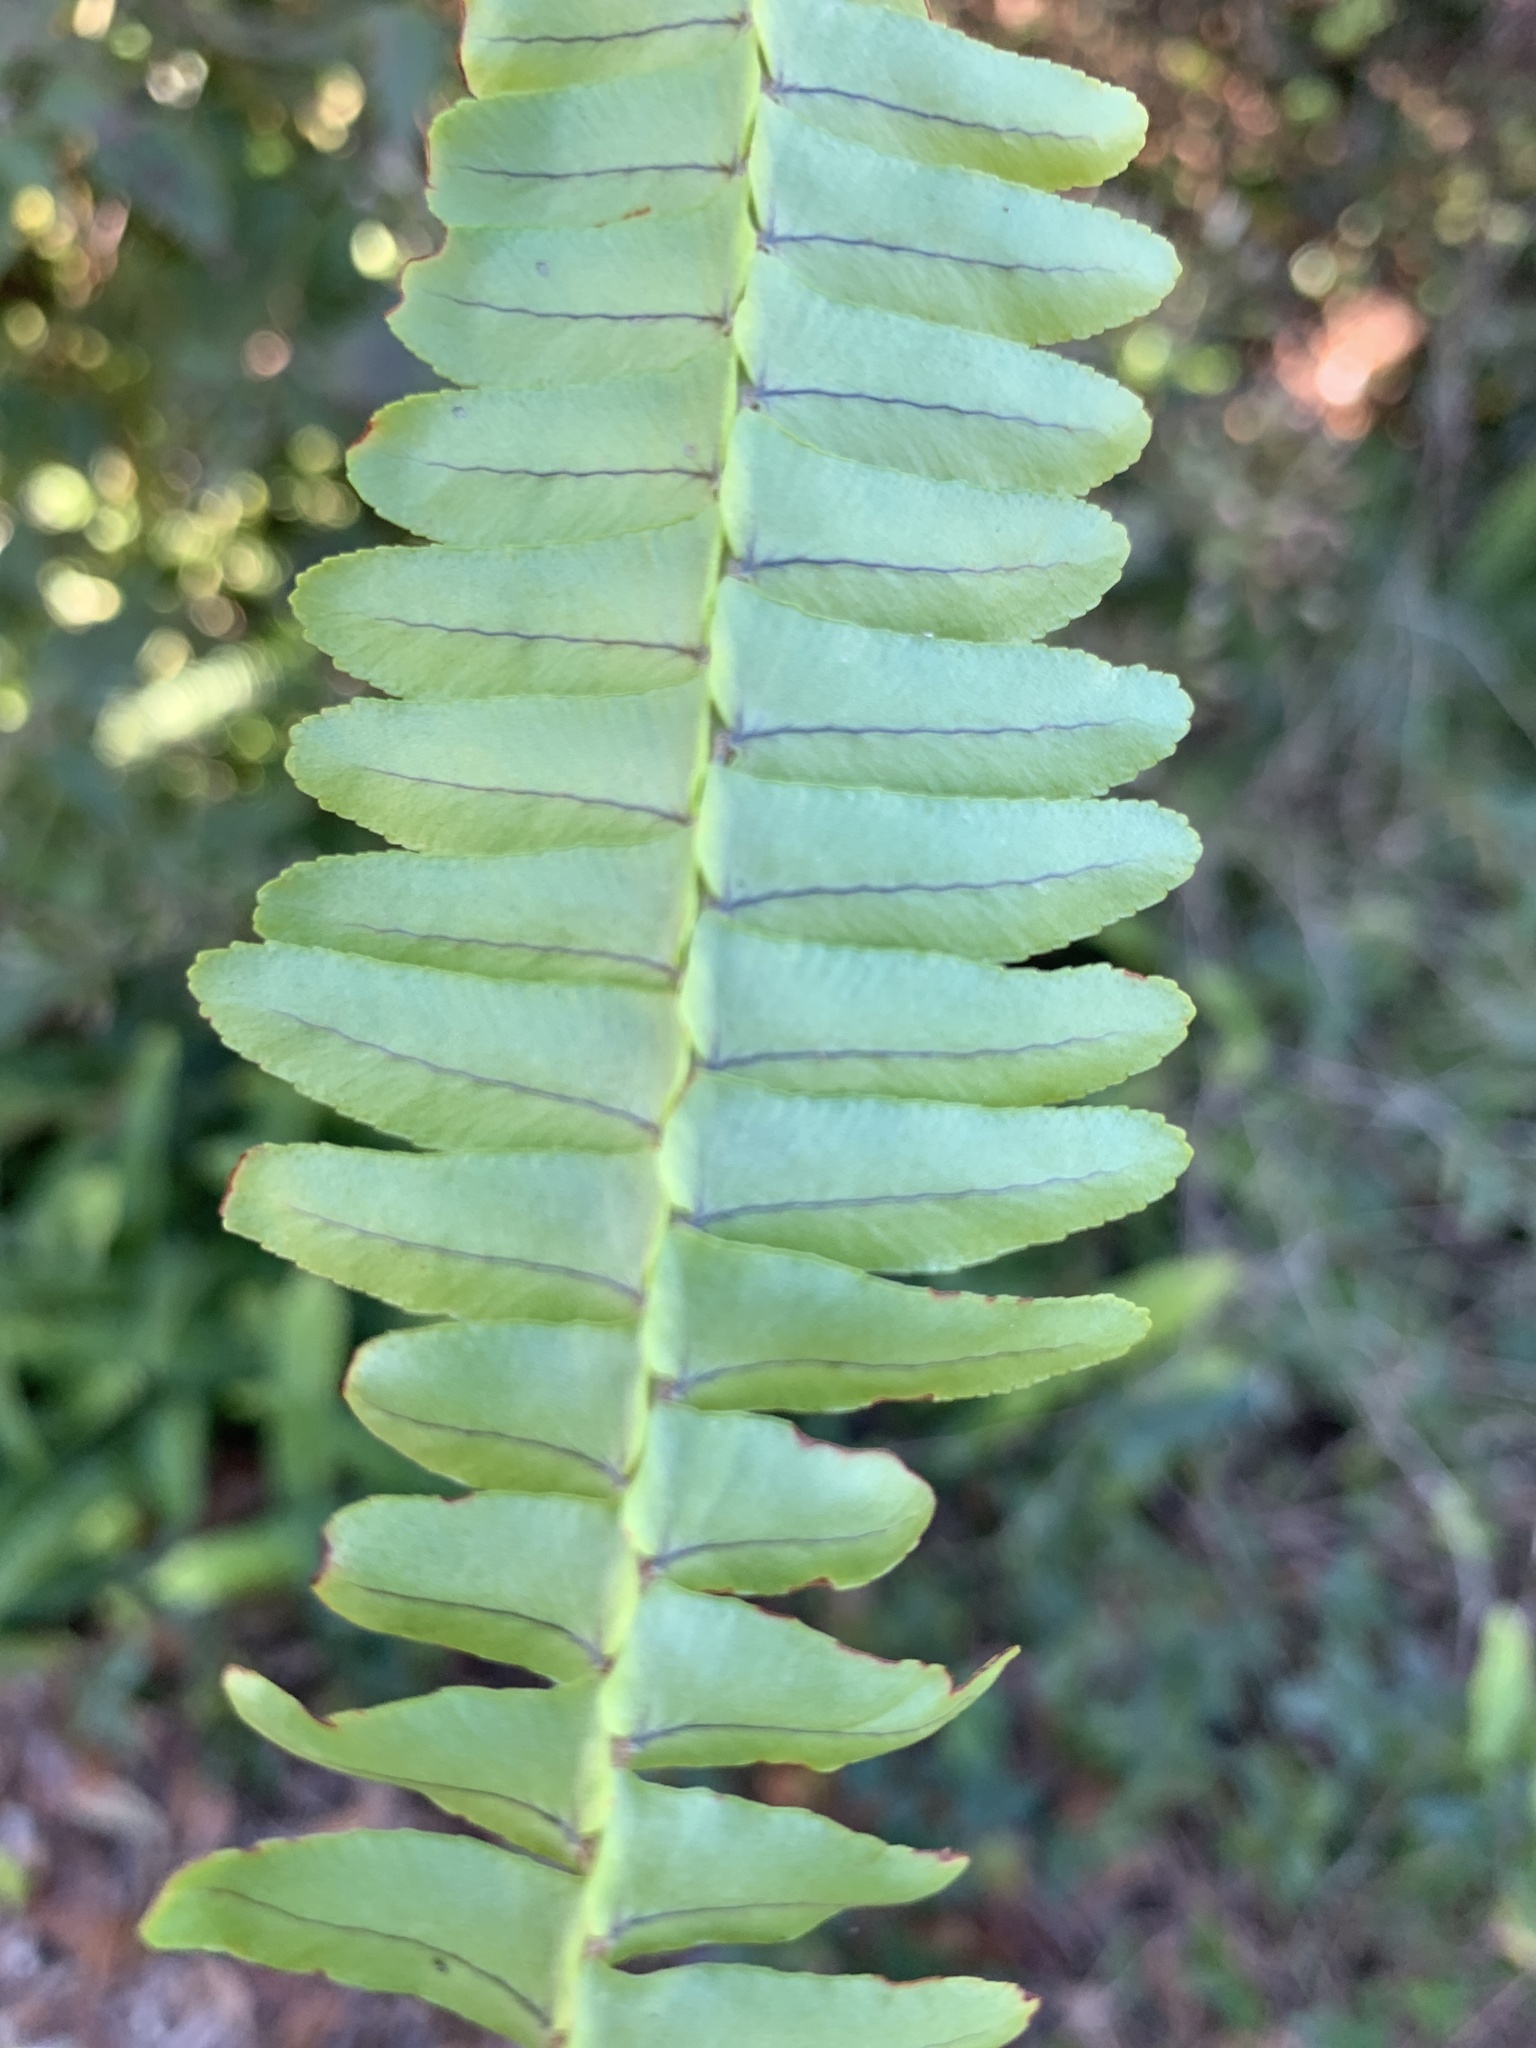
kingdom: Plantae
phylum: Tracheophyta
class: Polypodiopsida
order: Polypodiales
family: Nephrolepidaceae
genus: Nephrolepis
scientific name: Nephrolepis cordifolia
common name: Narrow swordfern
